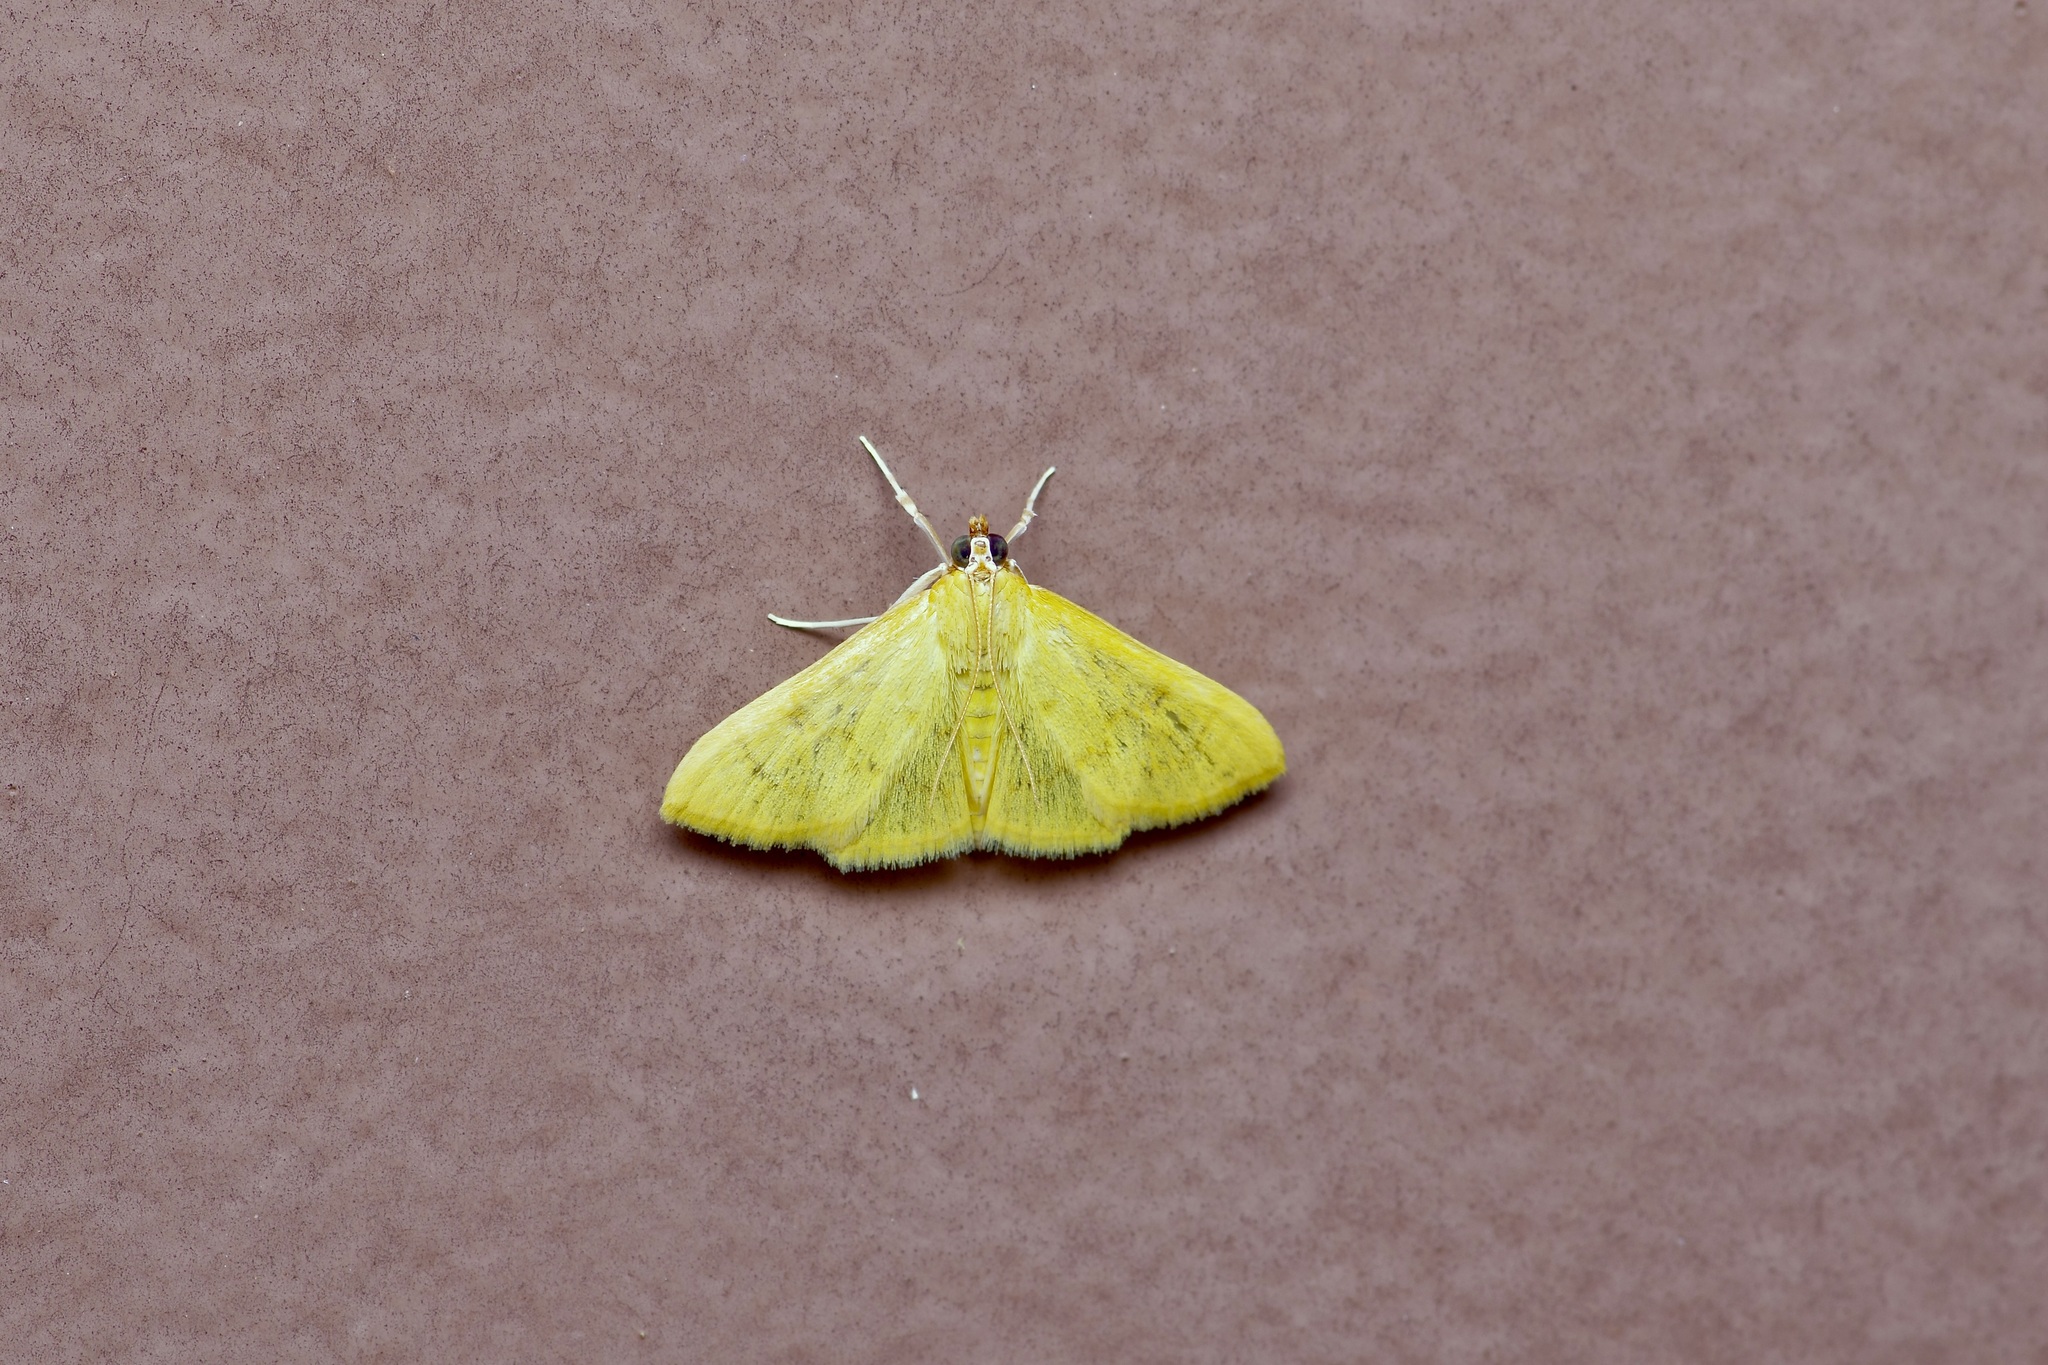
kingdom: Animalia
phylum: Arthropoda
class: Insecta
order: Lepidoptera
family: Crambidae
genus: Loxomorpha
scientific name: Loxomorpha flavidissimalis
